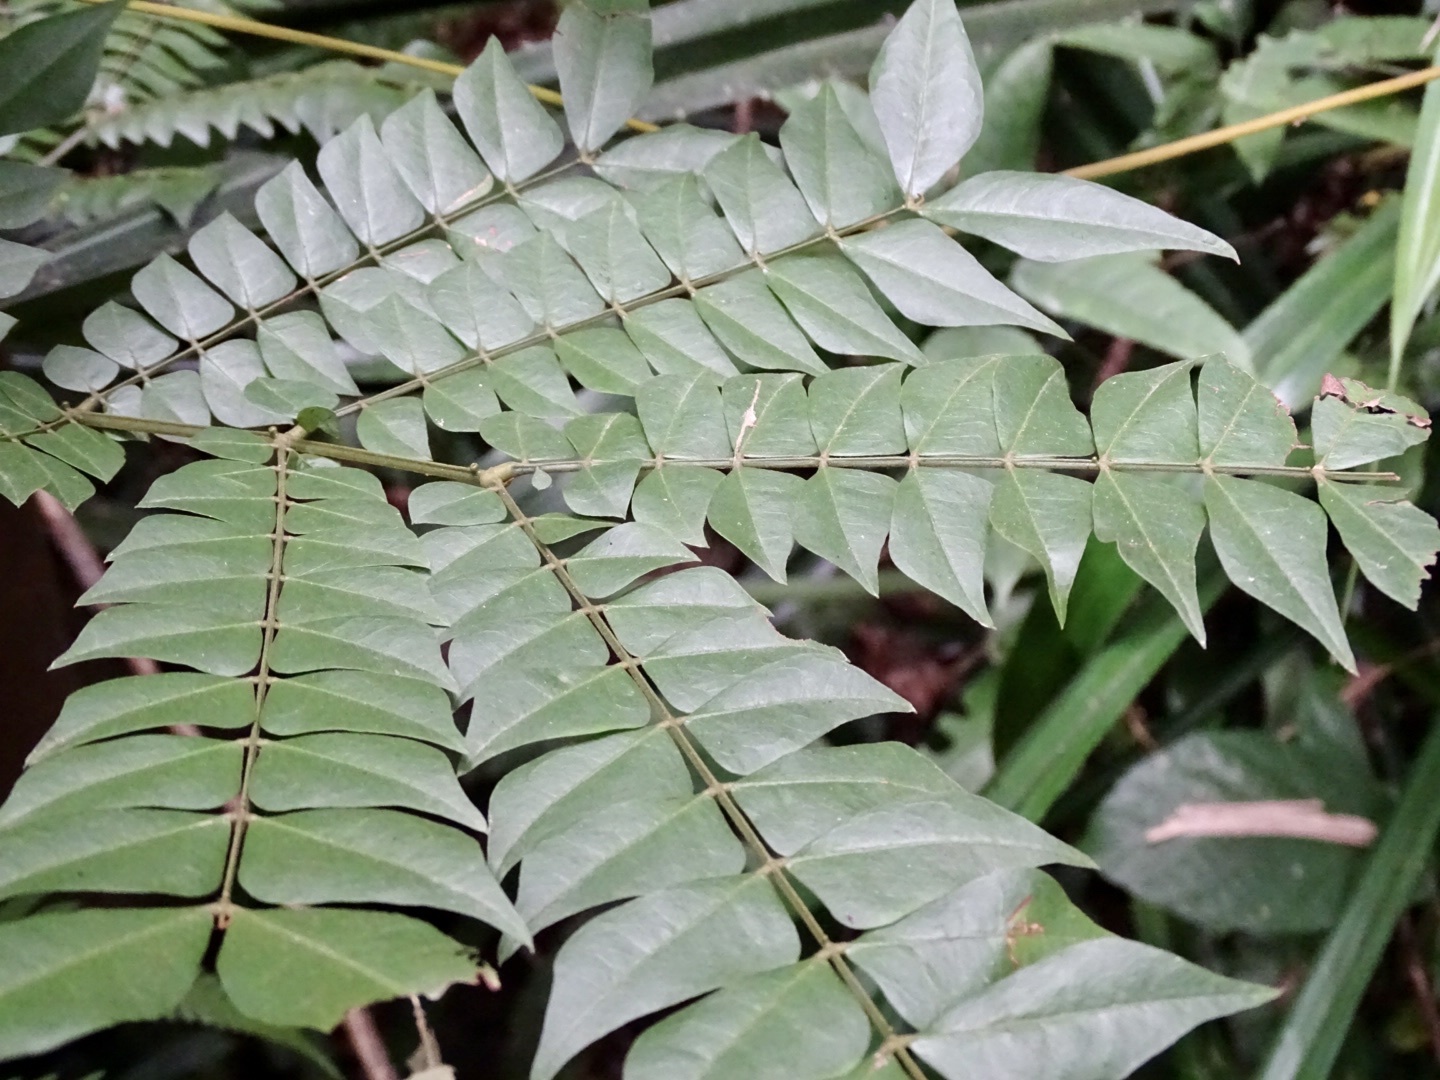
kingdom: Plantae
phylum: Tracheophyta
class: Magnoliopsida
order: Fabales
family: Fabaceae
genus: Archidendron
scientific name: Archidendron clypearia
